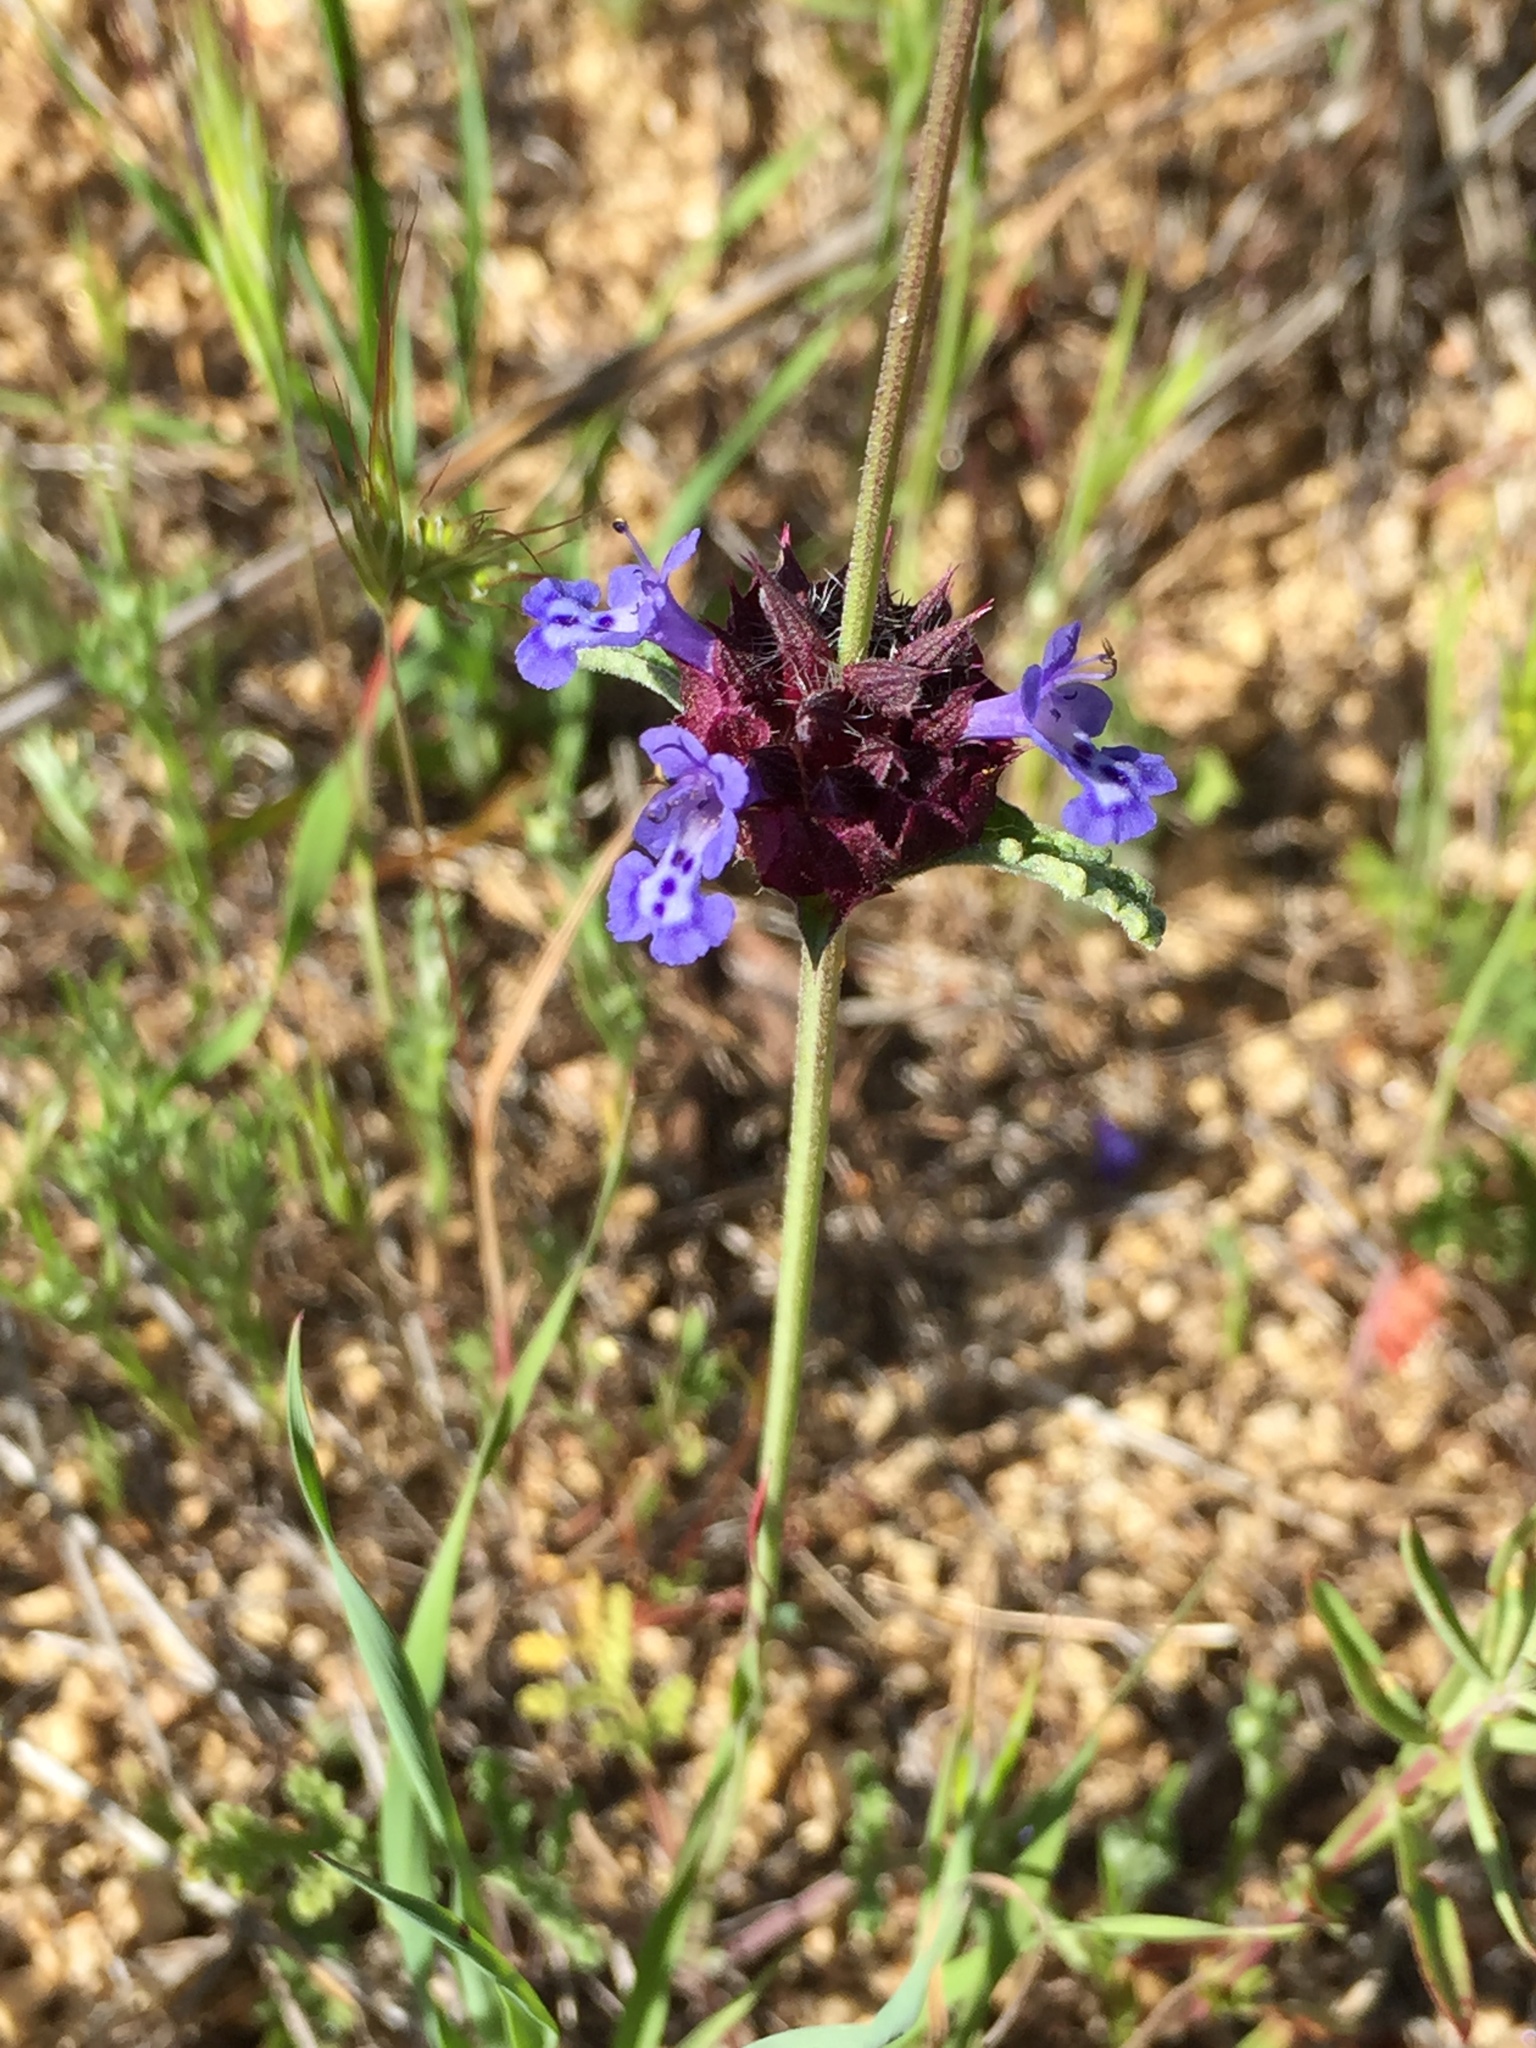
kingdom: Plantae
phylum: Tracheophyta
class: Magnoliopsida
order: Lamiales
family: Lamiaceae
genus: Salvia
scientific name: Salvia columbariae
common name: Chia
